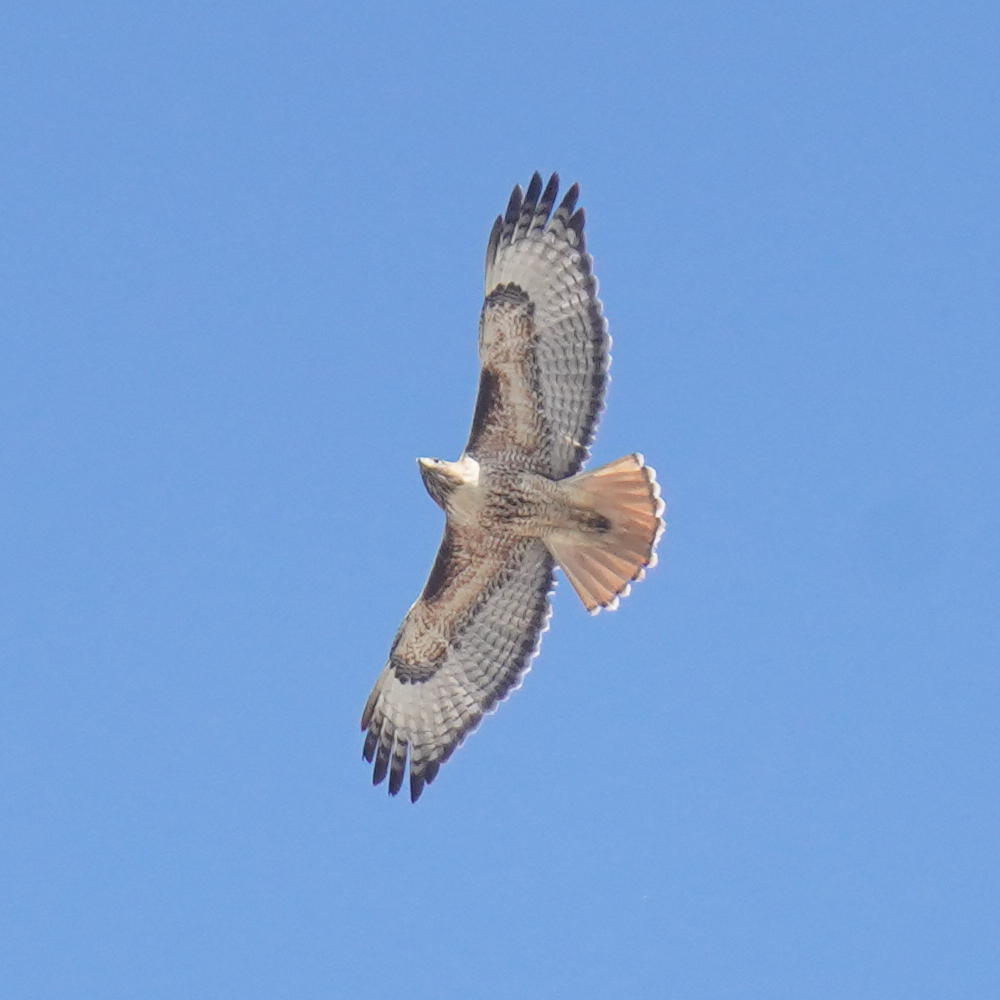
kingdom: Animalia
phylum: Chordata
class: Aves
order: Accipitriformes
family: Accipitridae
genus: Buteo
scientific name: Buteo jamaicensis
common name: Red-tailed hawk
